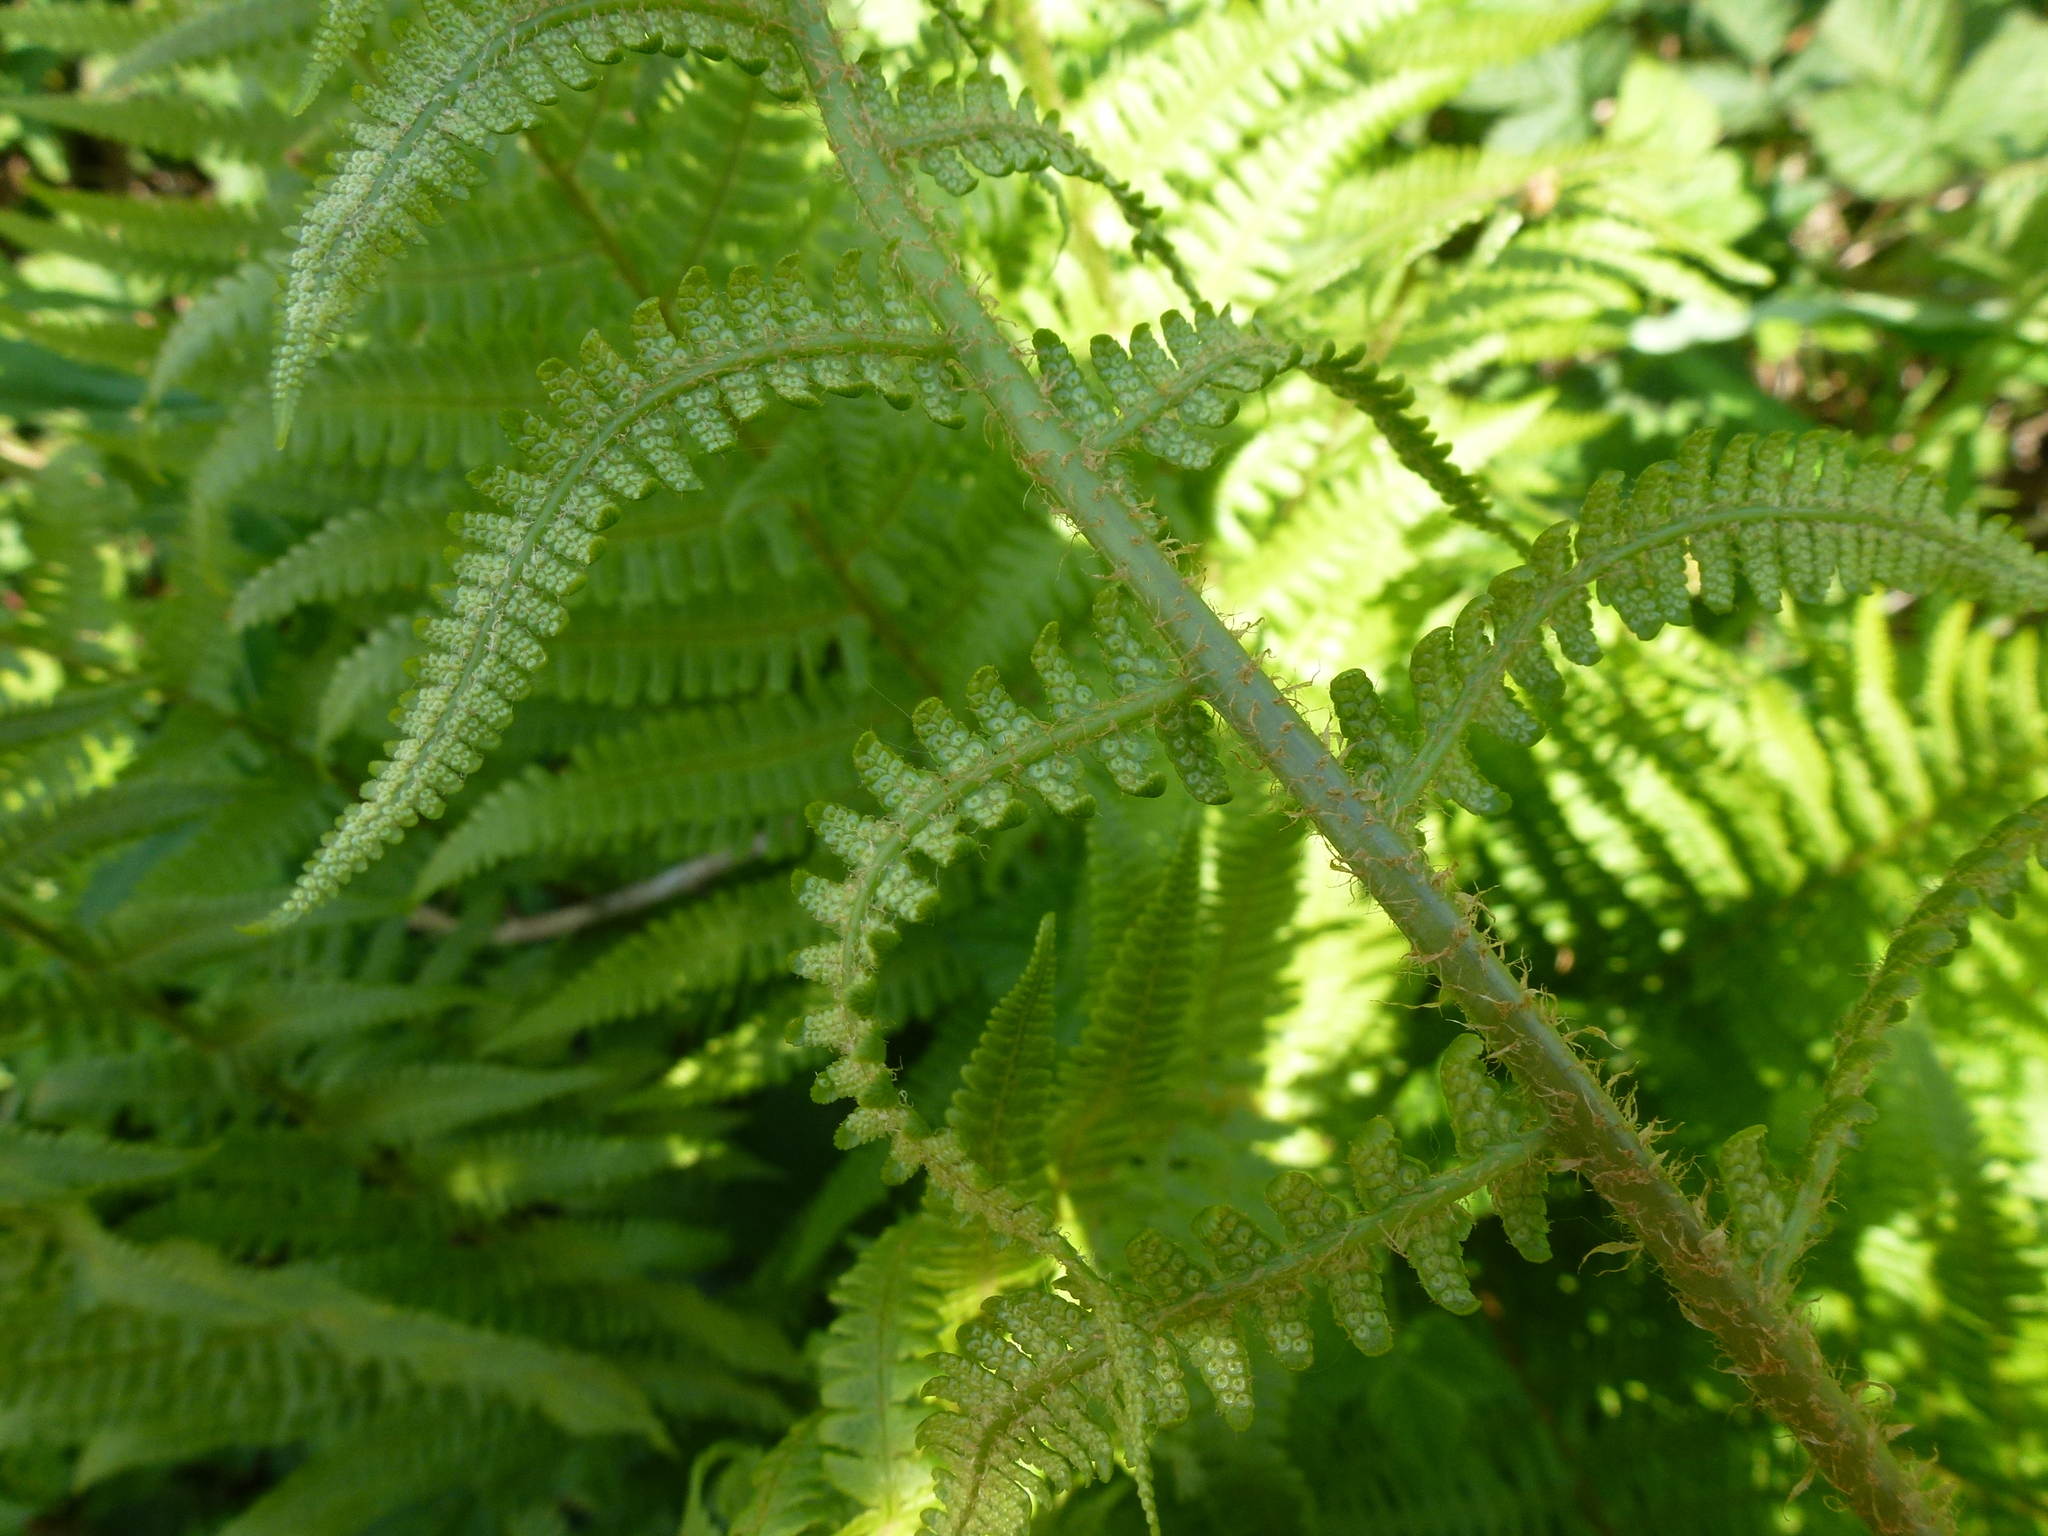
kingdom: Plantae
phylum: Tracheophyta
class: Polypodiopsida
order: Polypodiales
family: Dryopteridaceae
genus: Dryopteris
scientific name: Dryopteris filix-mas
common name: Male fern
